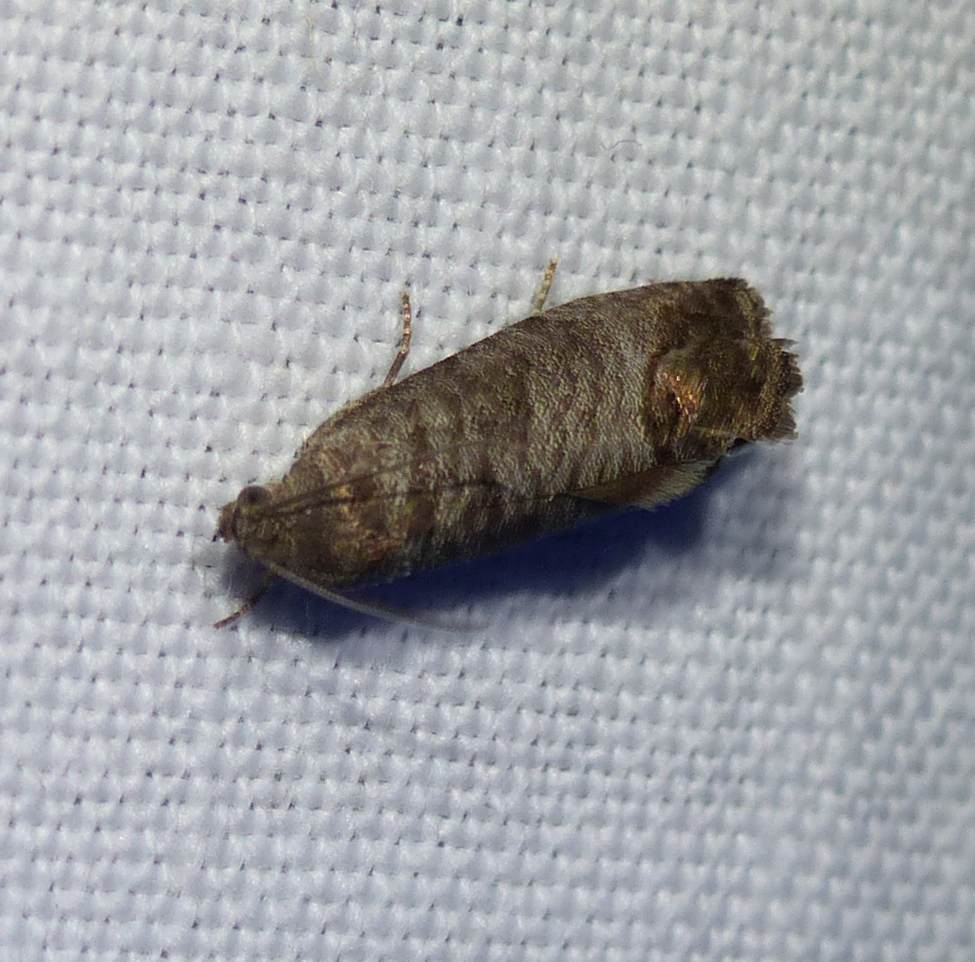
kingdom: Animalia
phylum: Arthropoda
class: Insecta
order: Lepidoptera
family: Tortricidae
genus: Cydia
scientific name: Cydia pomonella
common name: Codling moth
